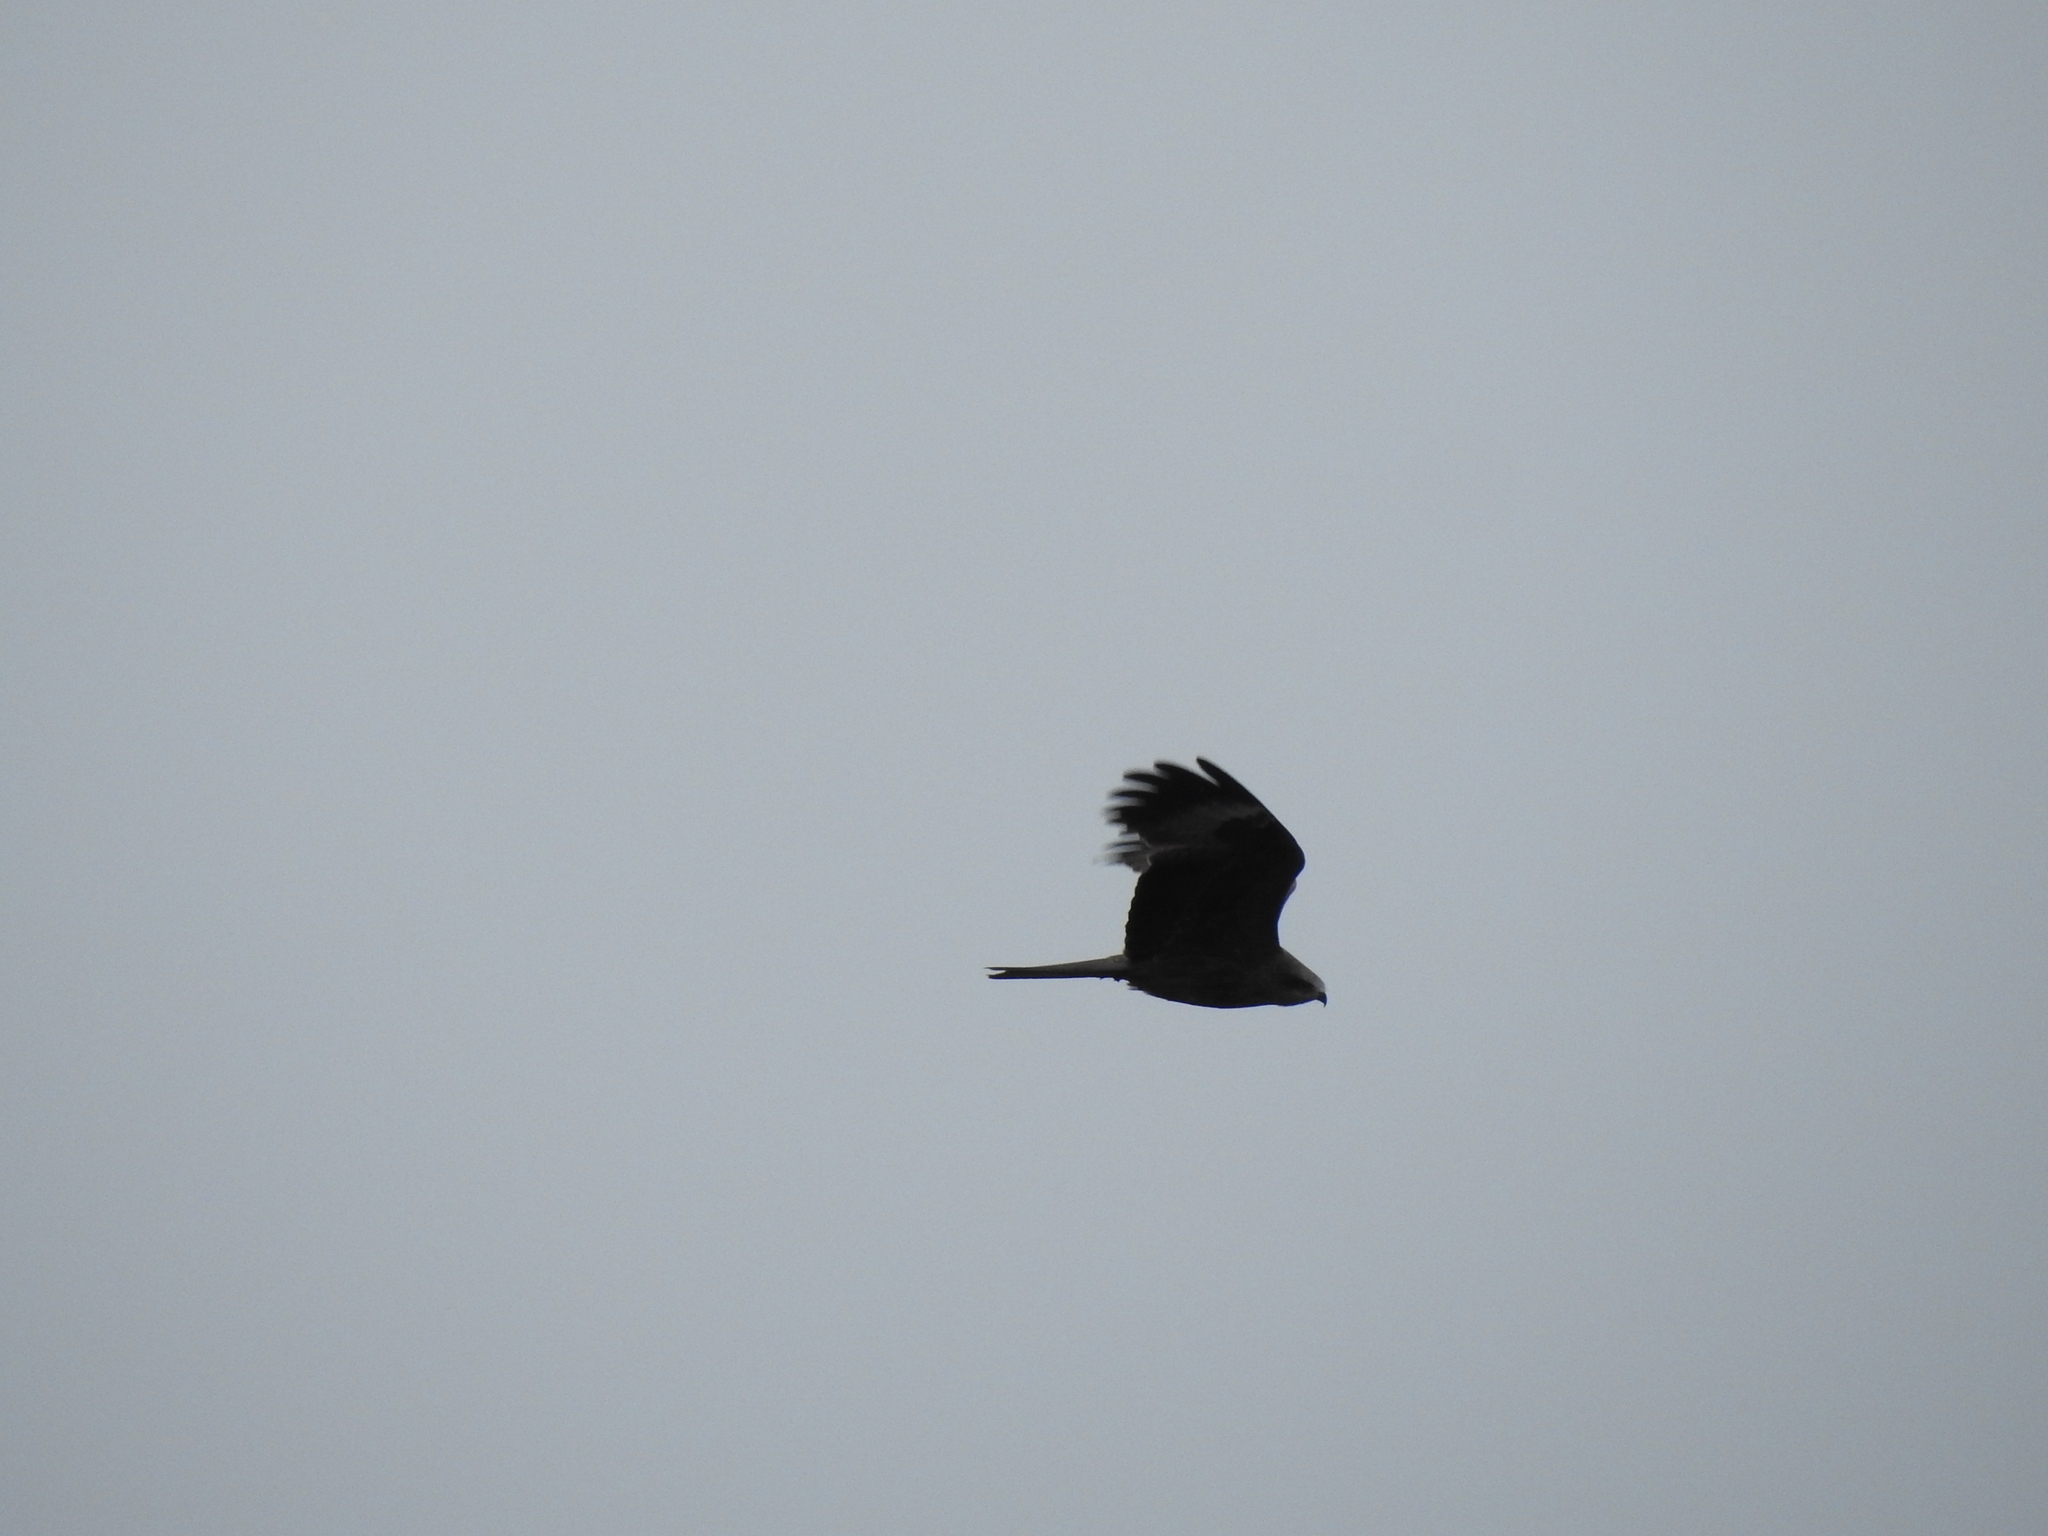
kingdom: Animalia
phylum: Chordata
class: Aves
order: Accipitriformes
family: Accipitridae
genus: Milvus
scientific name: Milvus migrans
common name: Black kite
